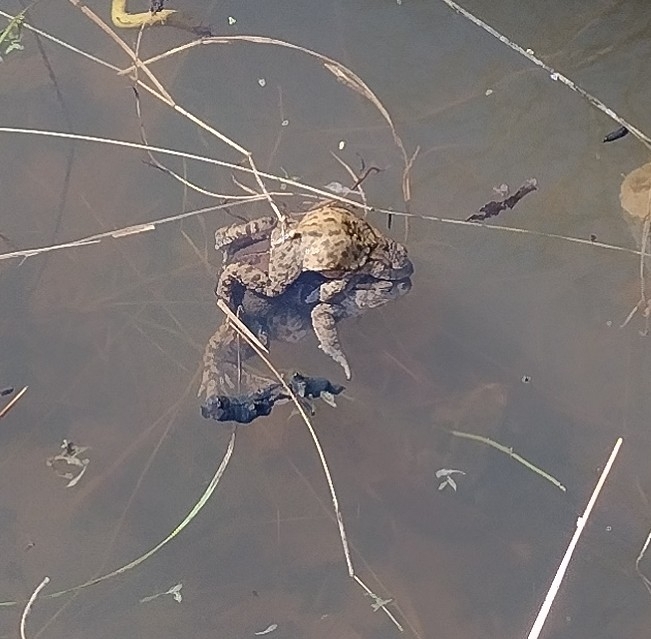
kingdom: Animalia
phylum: Chordata
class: Amphibia
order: Anura
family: Bufonidae
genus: Bufo
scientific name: Bufo bufo
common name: Common toad
